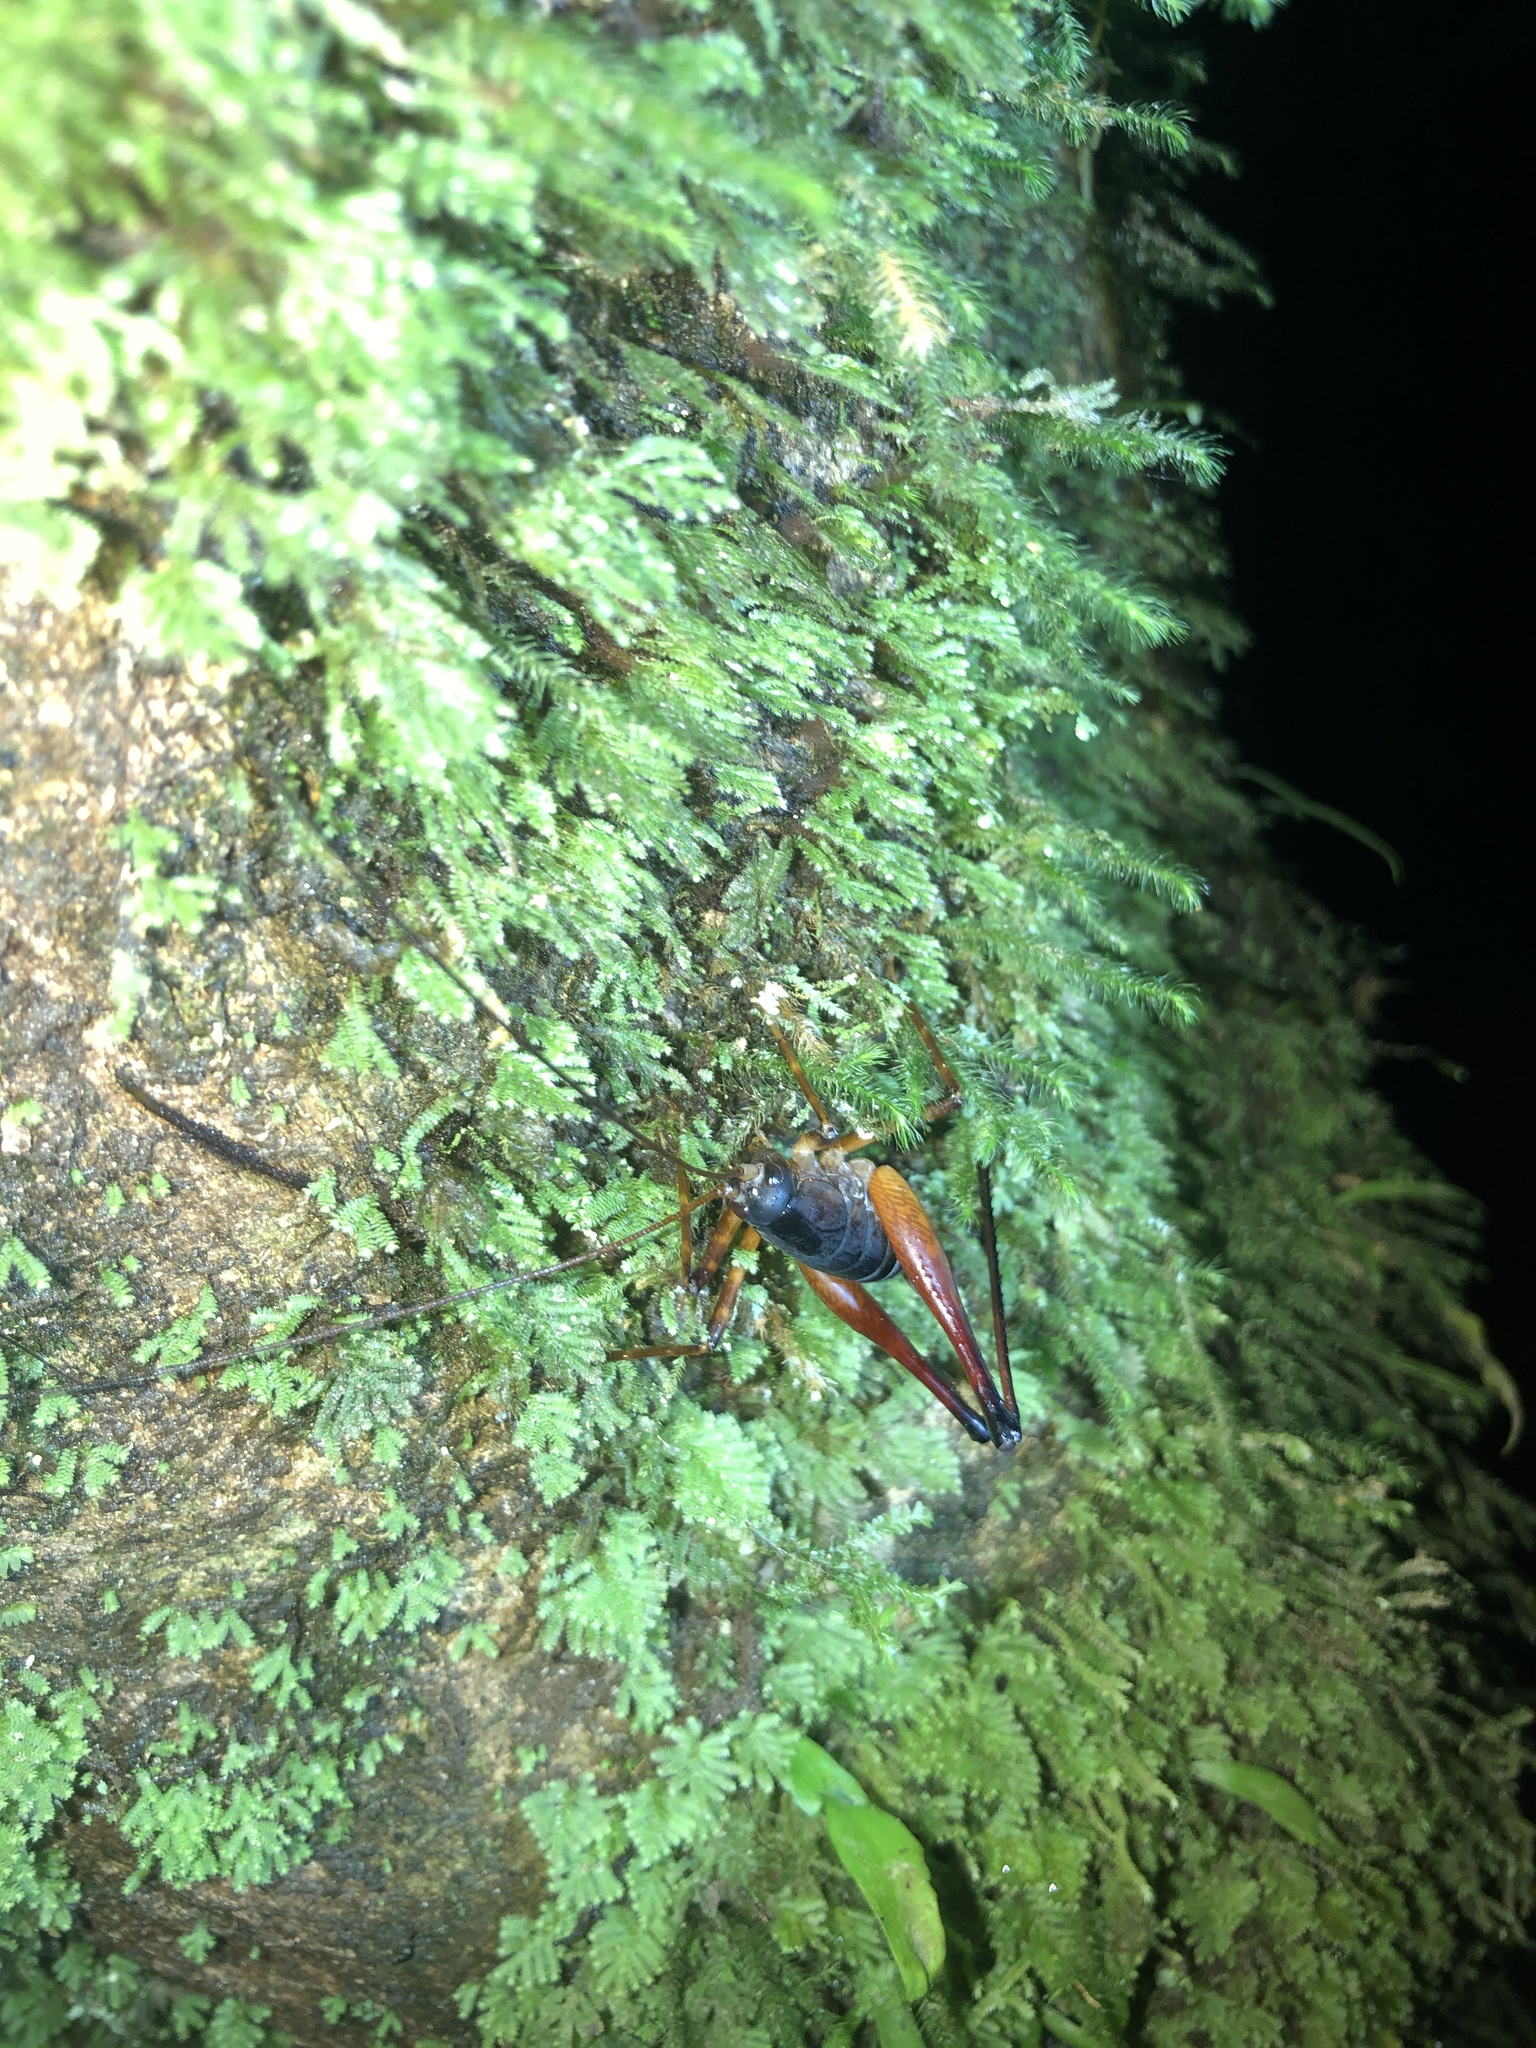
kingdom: Animalia
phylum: Arthropoda
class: Insecta
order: Orthoptera
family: Rhaphidophoridae
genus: Pachyrhamma
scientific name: Pachyrhamma longicauda
